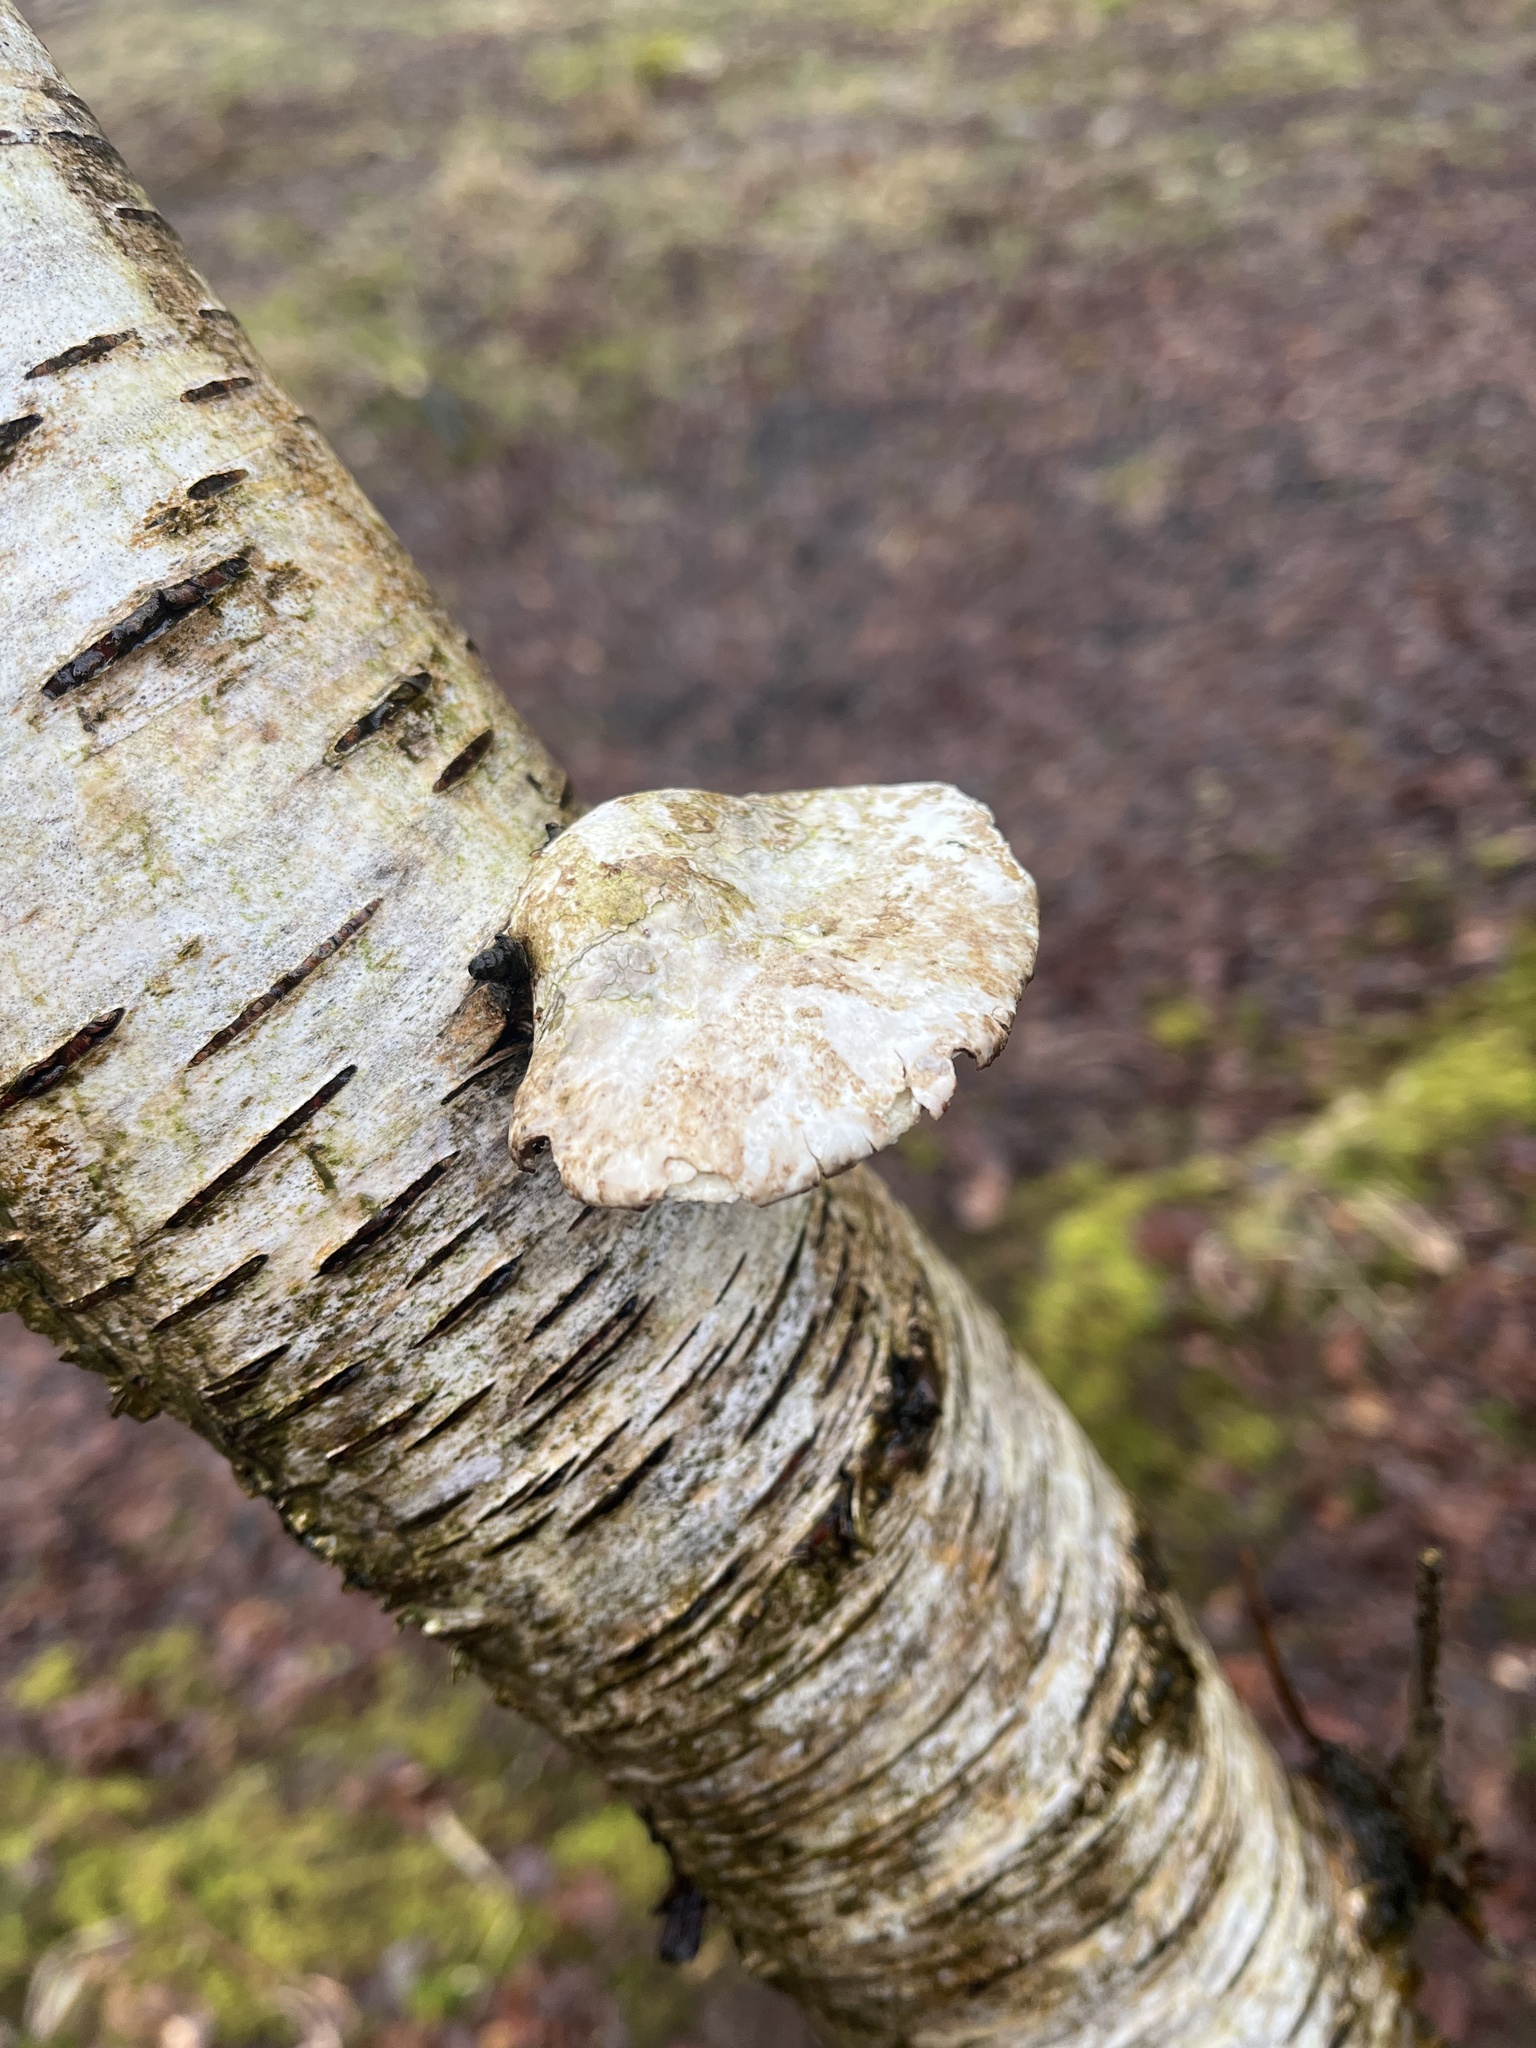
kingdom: Fungi
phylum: Basidiomycota
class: Agaricomycetes
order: Polyporales
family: Fomitopsidaceae
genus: Fomitopsis
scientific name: Fomitopsis betulina
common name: Birch polypore
